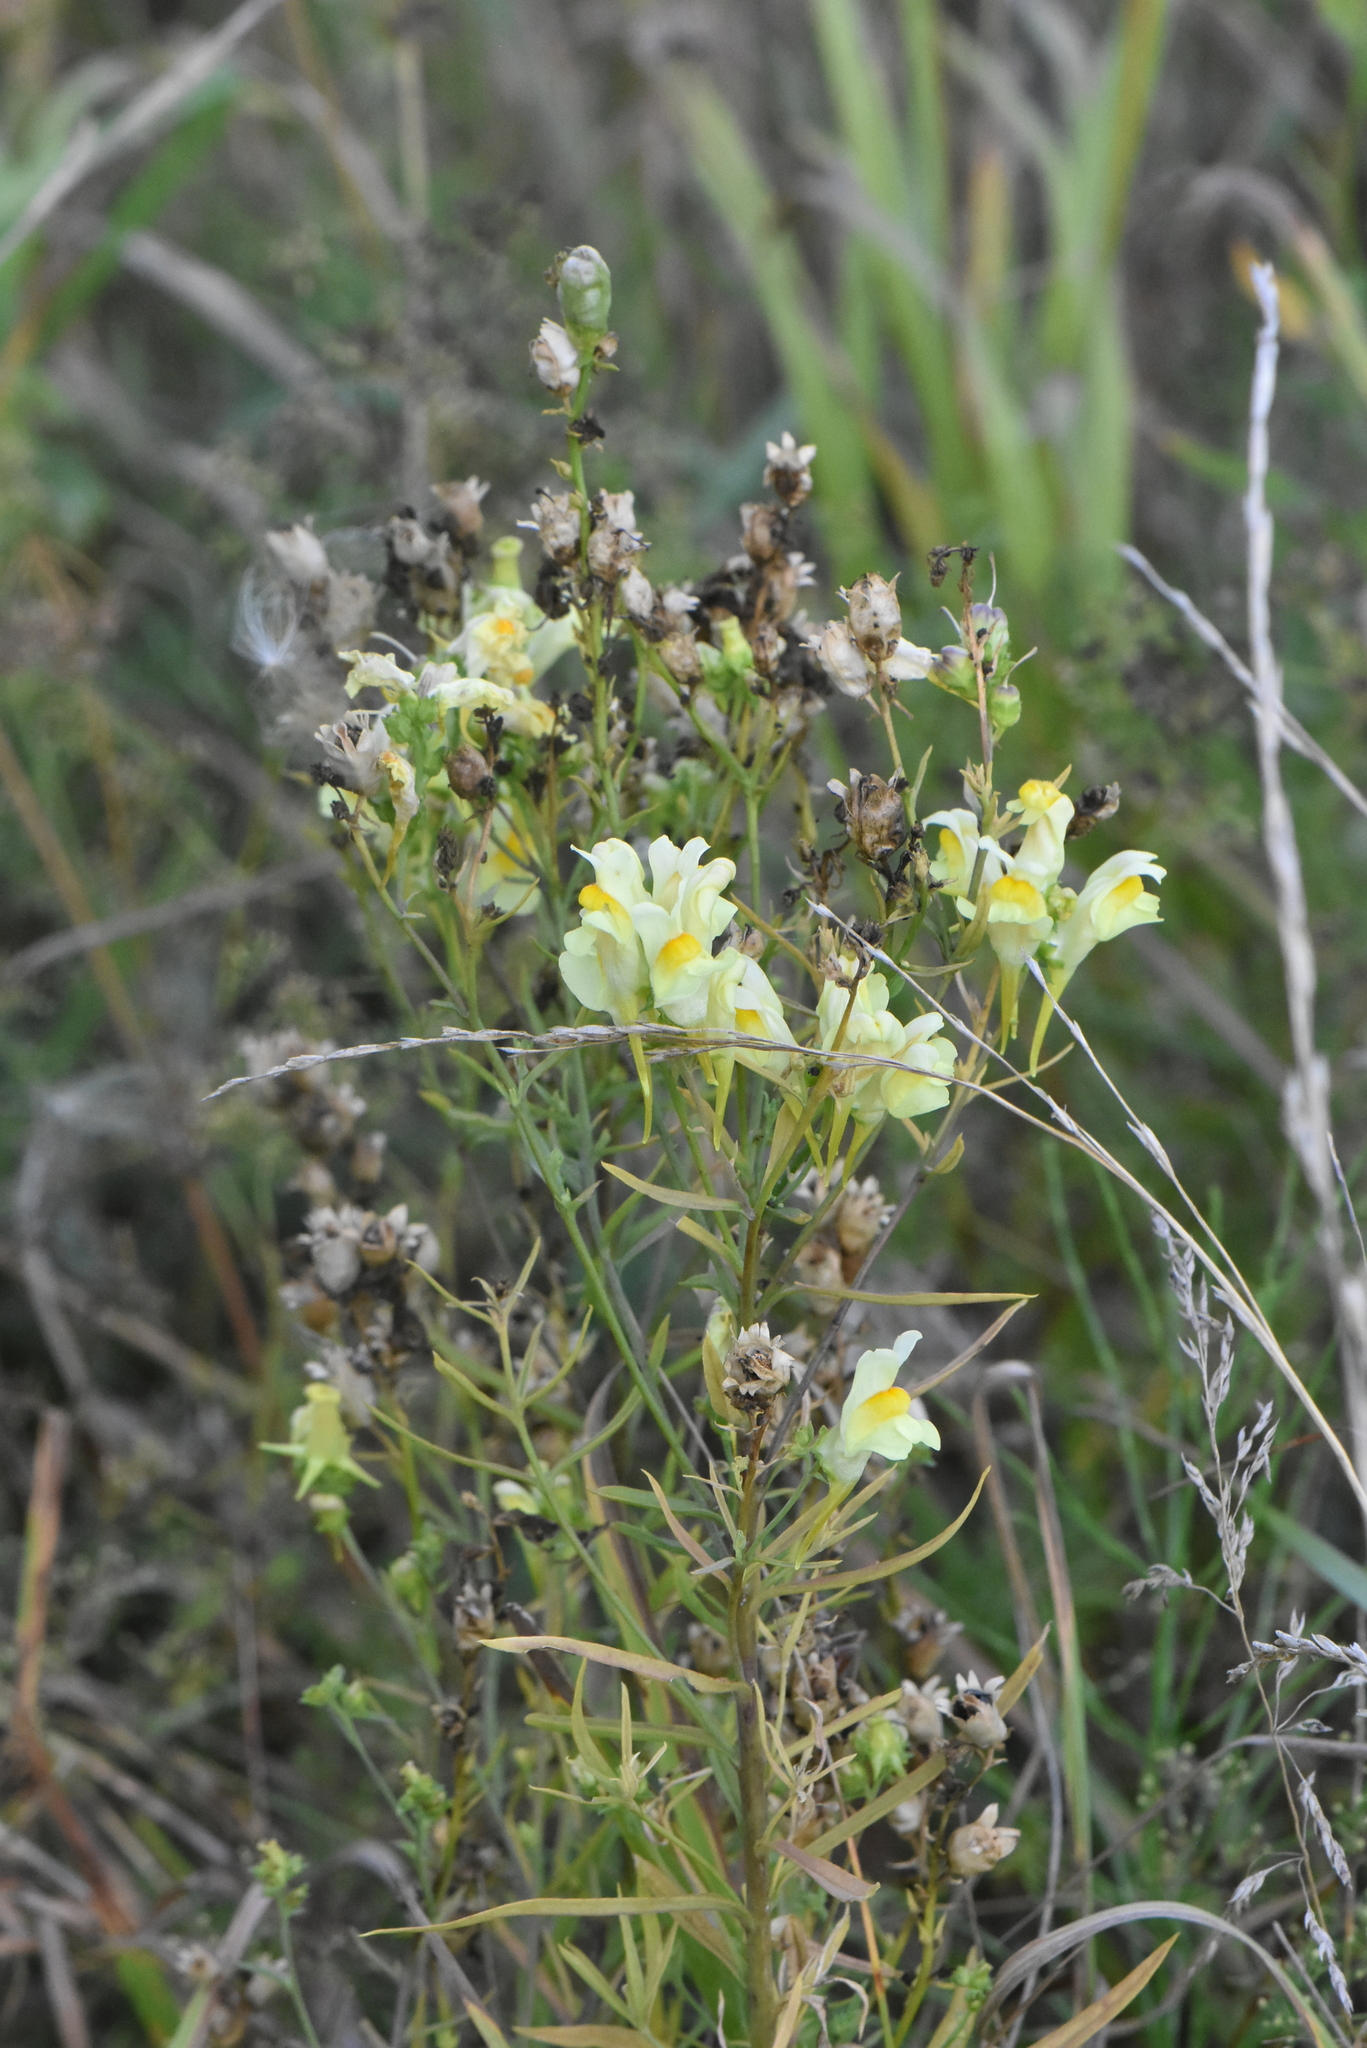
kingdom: Plantae
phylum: Tracheophyta
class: Magnoliopsida
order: Lamiales
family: Plantaginaceae
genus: Linaria
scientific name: Linaria vulgaris
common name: Butter and eggs
